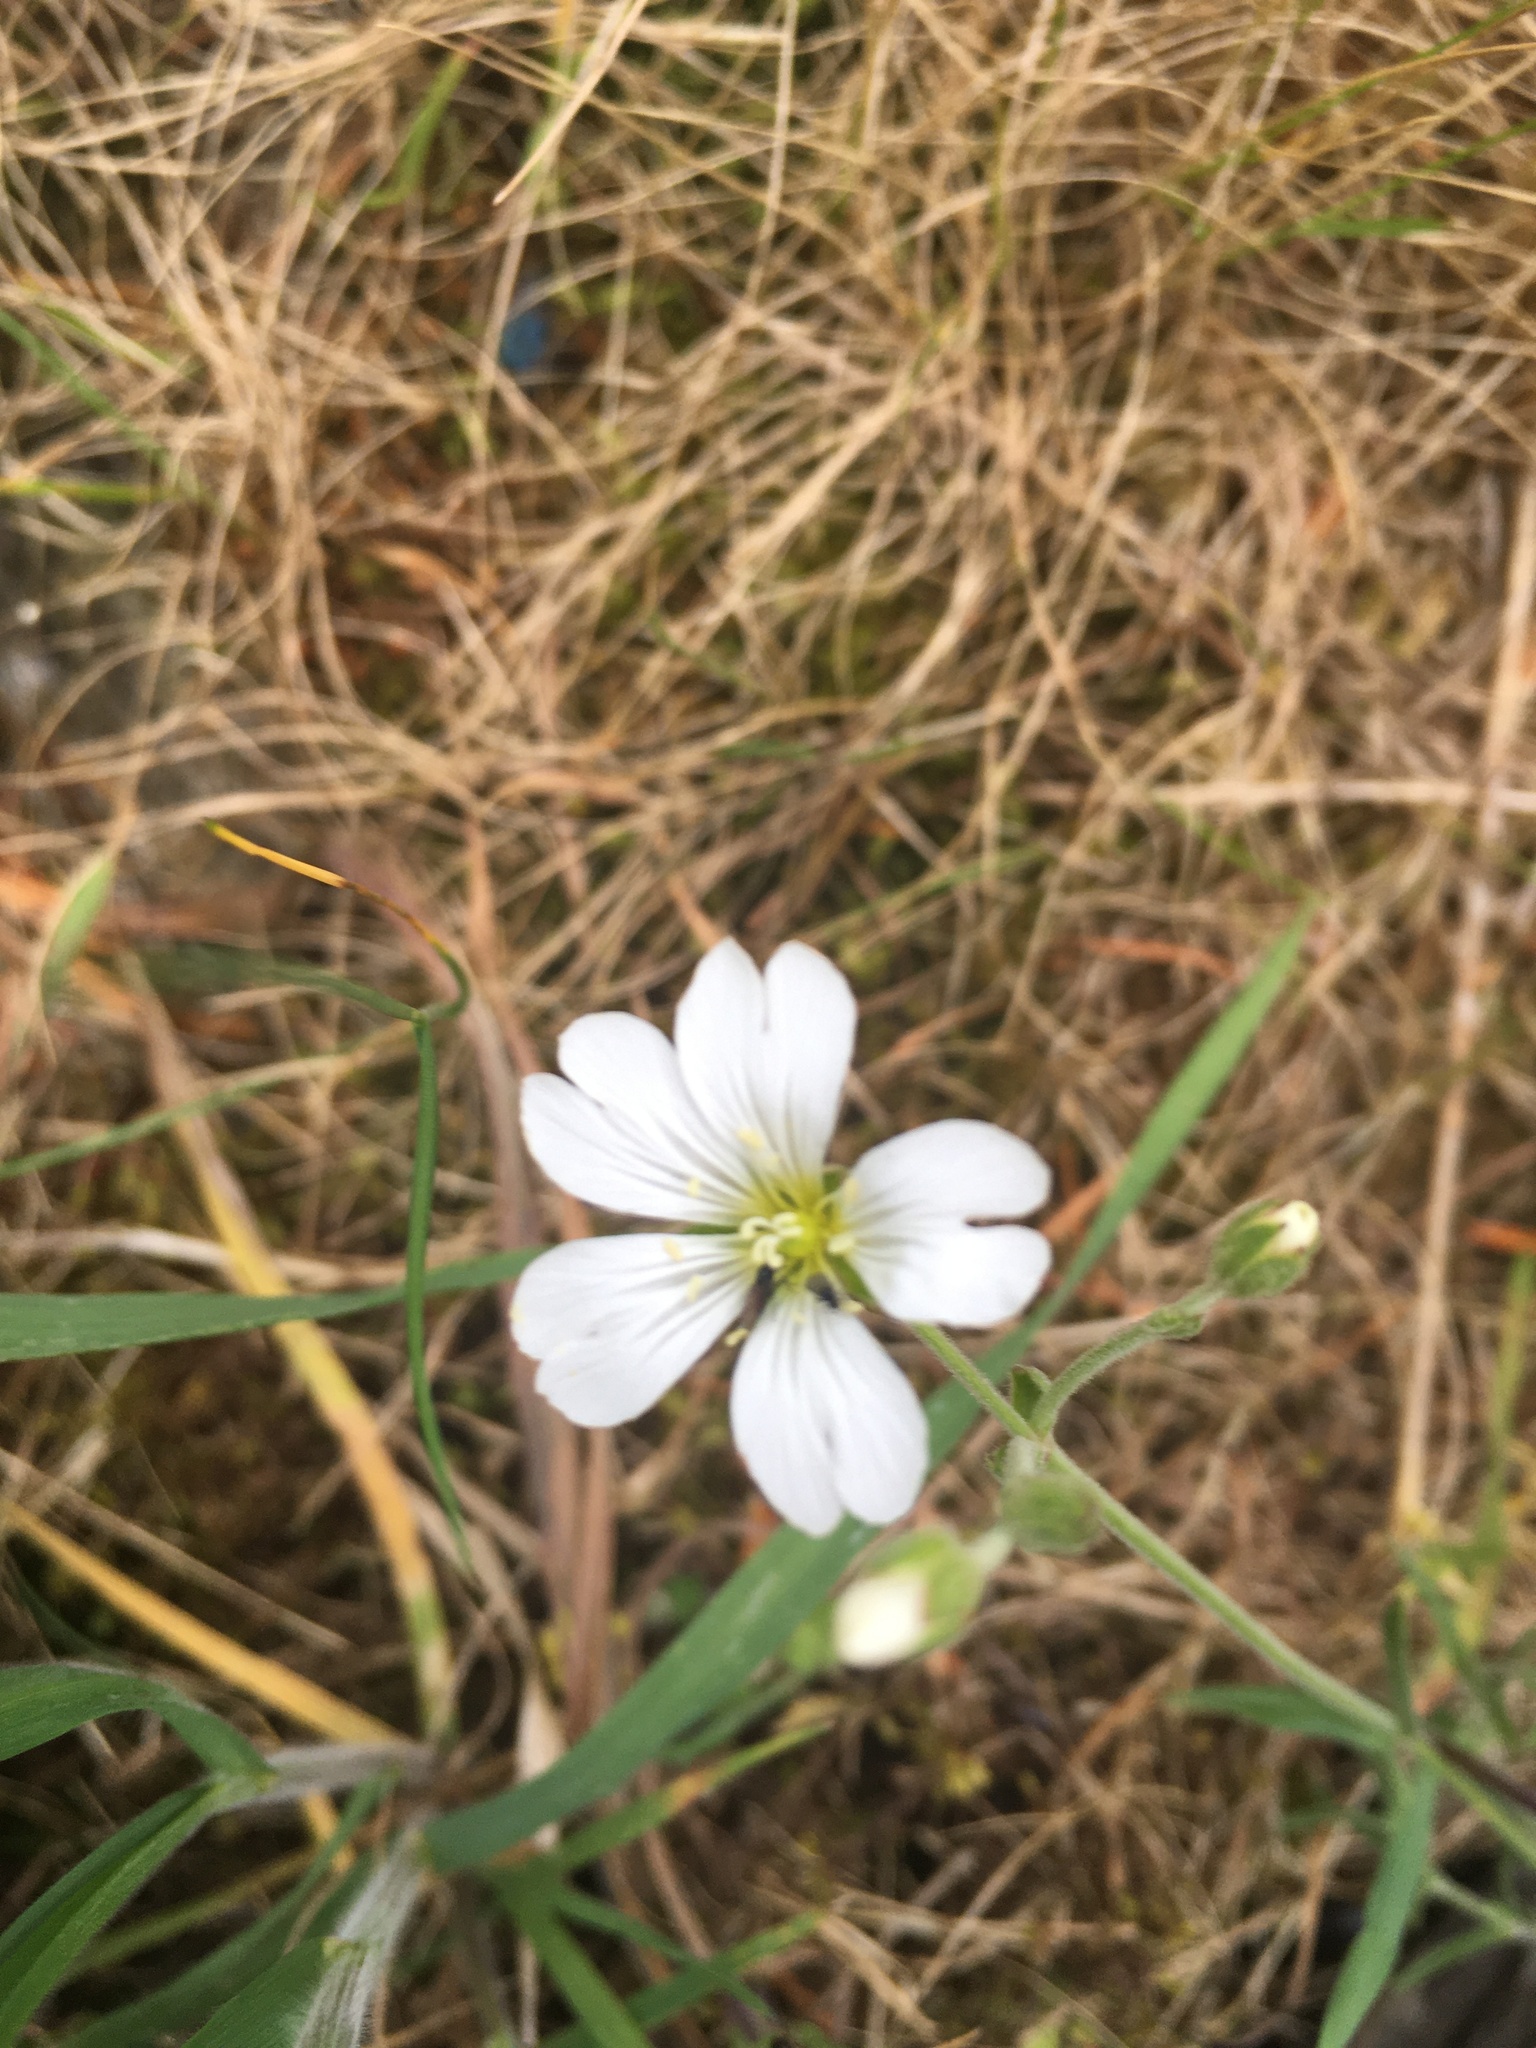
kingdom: Plantae
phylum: Tracheophyta
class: Magnoliopsida
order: Caryophyllales
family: Caryophyllaceae
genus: Cerastium
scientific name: Cerastium arvense
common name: Field mouse-ear
